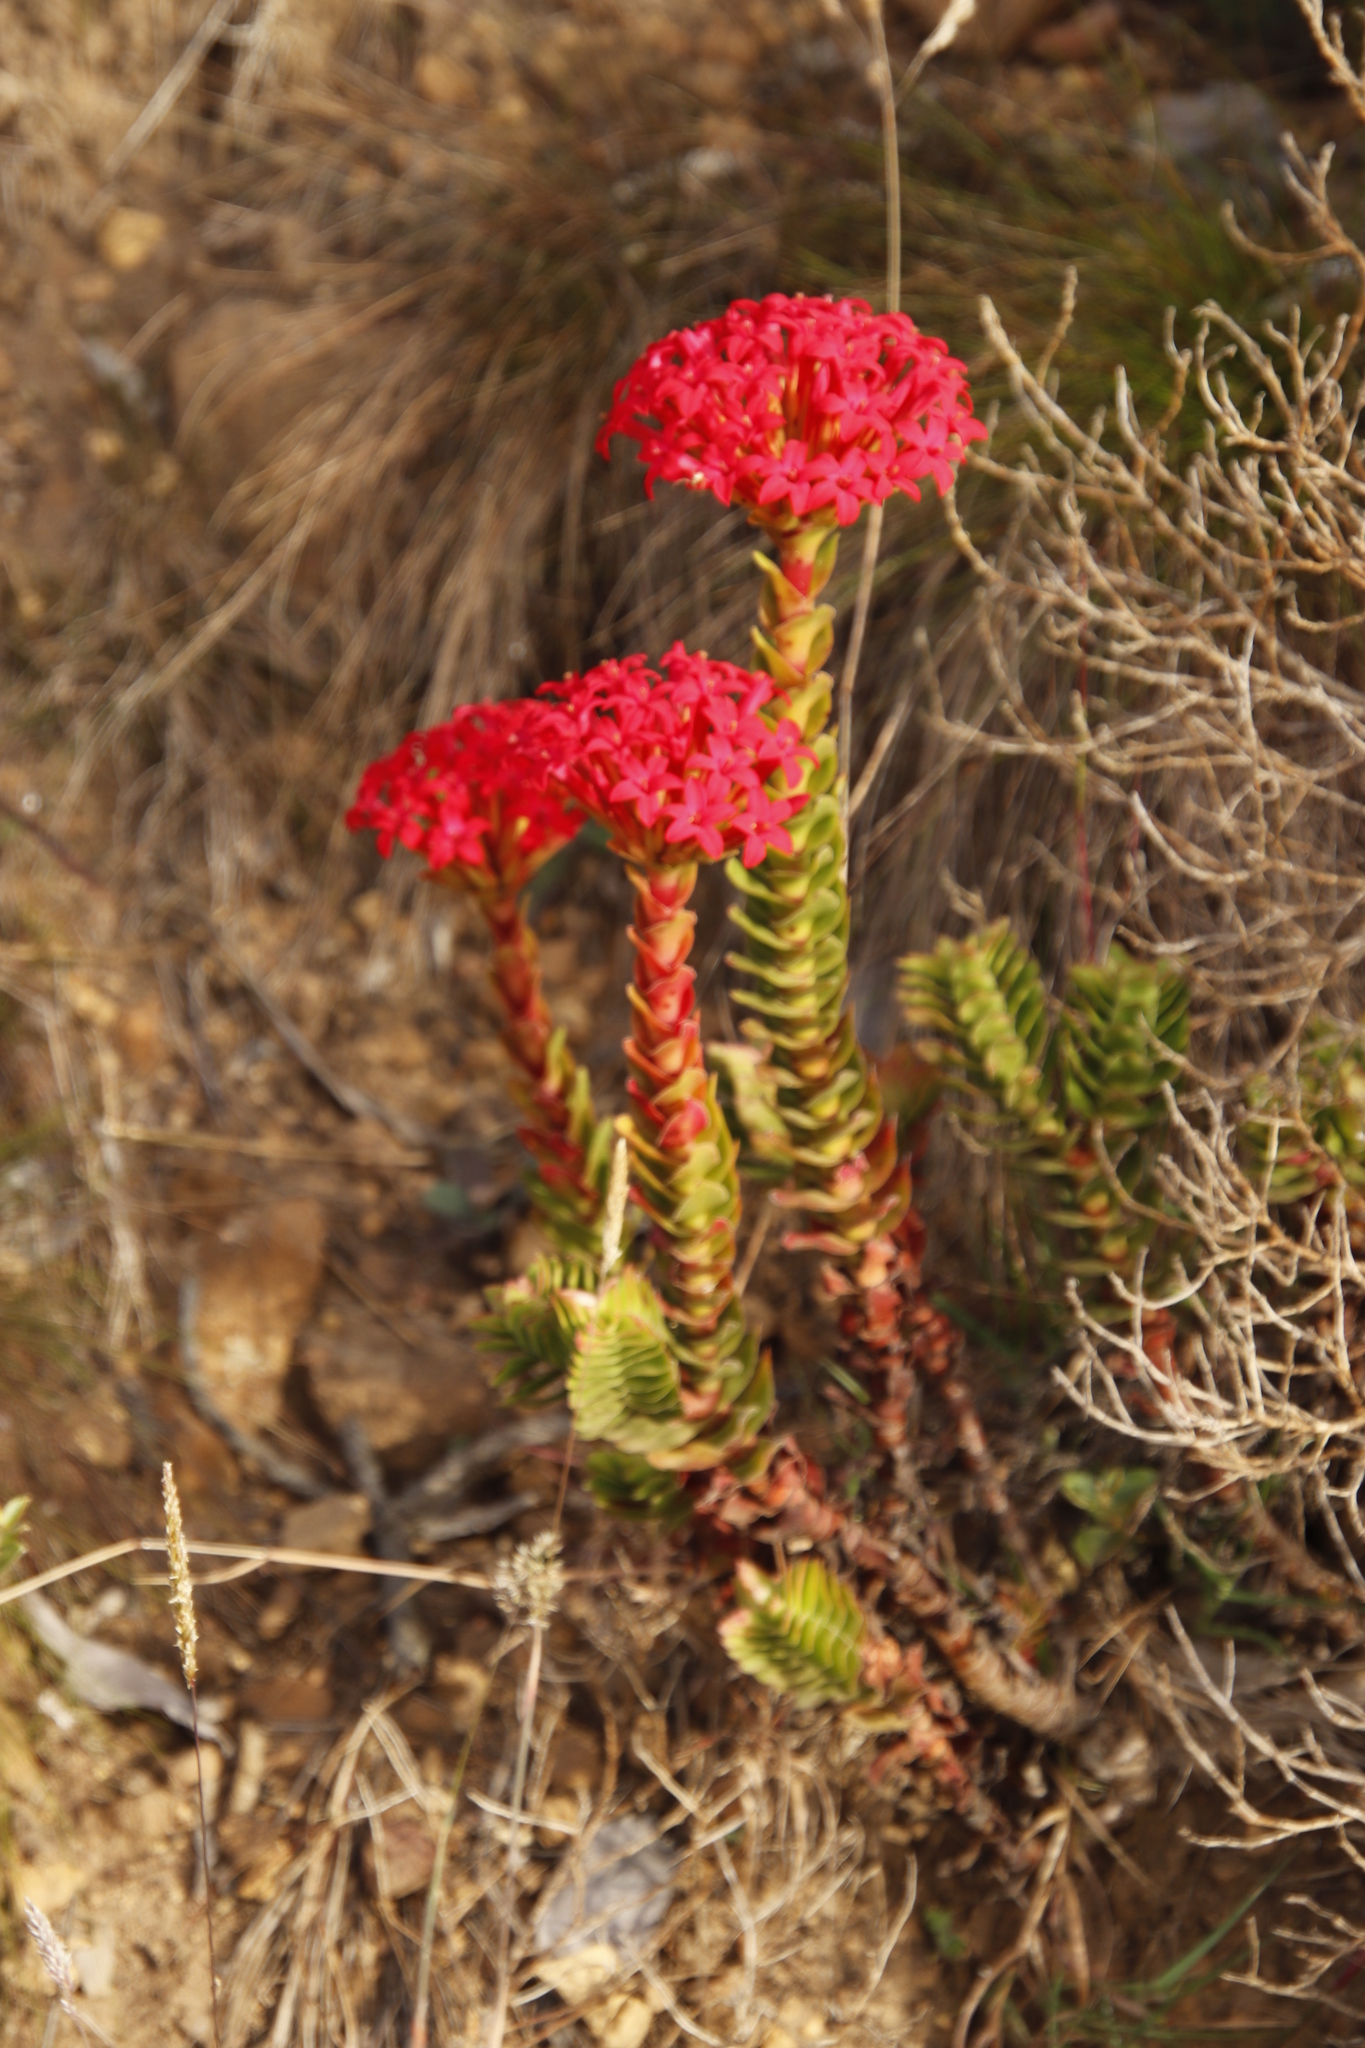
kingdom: Plantae
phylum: Tracheophyta
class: Magnoliopsida
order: Saxifragales
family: Crassulaceae
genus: Crassula
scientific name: Crassula coccinea
